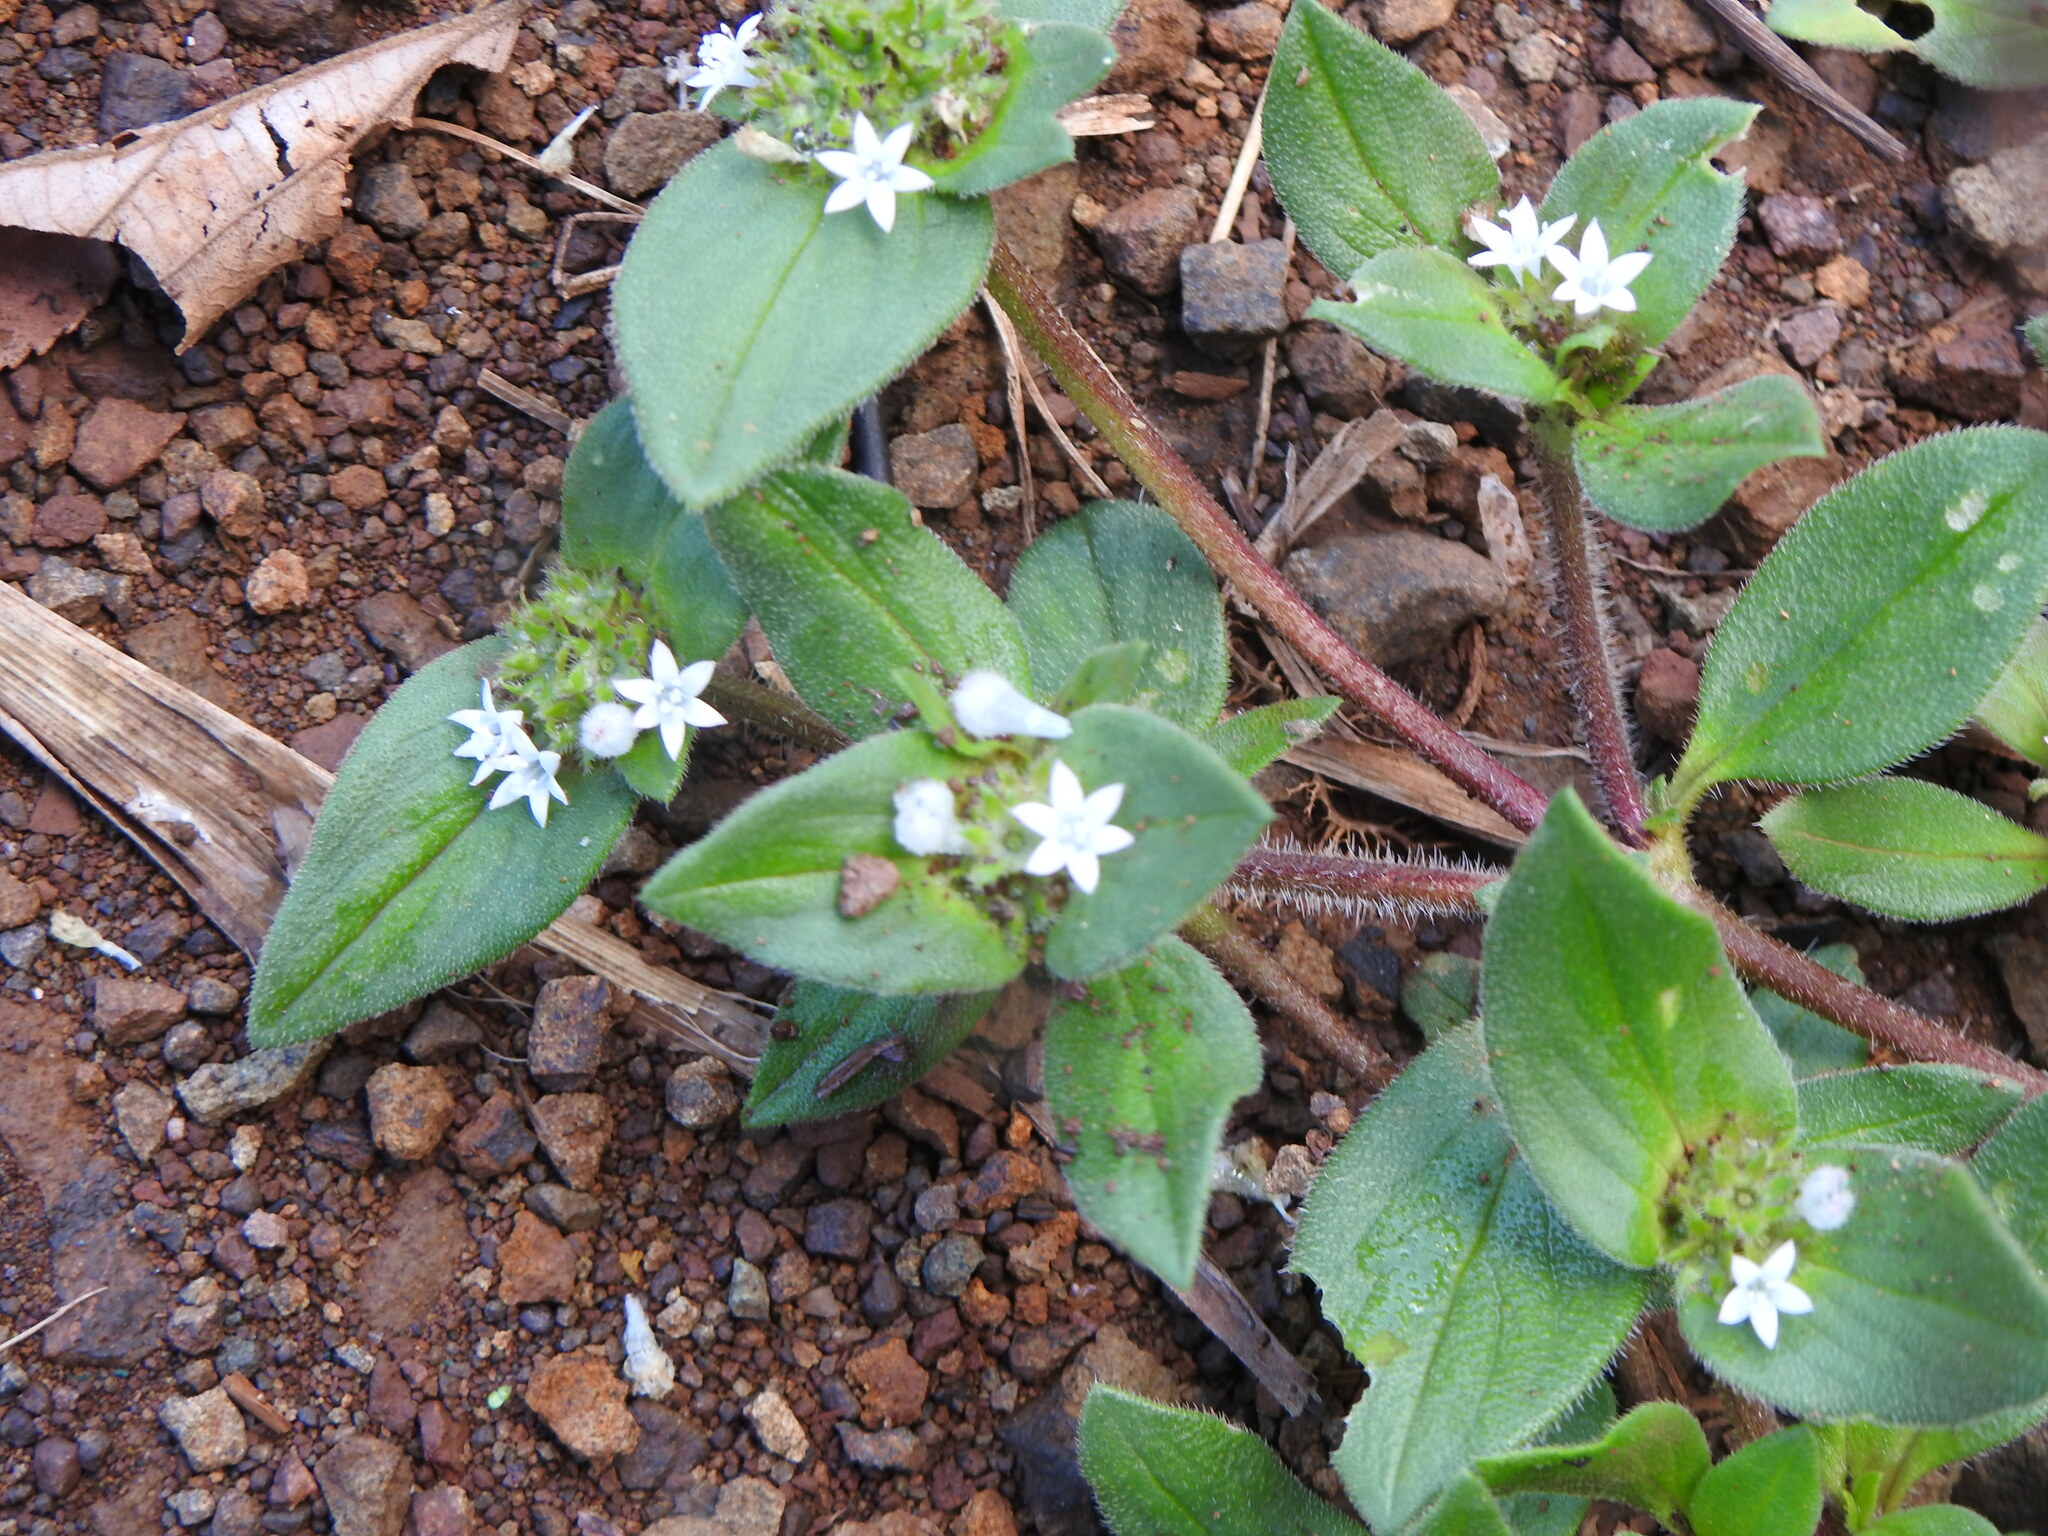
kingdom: Plantae
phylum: Tracheophyta
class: Magnoliopsida
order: Gentianales
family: Rubiaceae
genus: Richardia
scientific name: Richardia brasiliensis
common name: Tropical mexican clover
